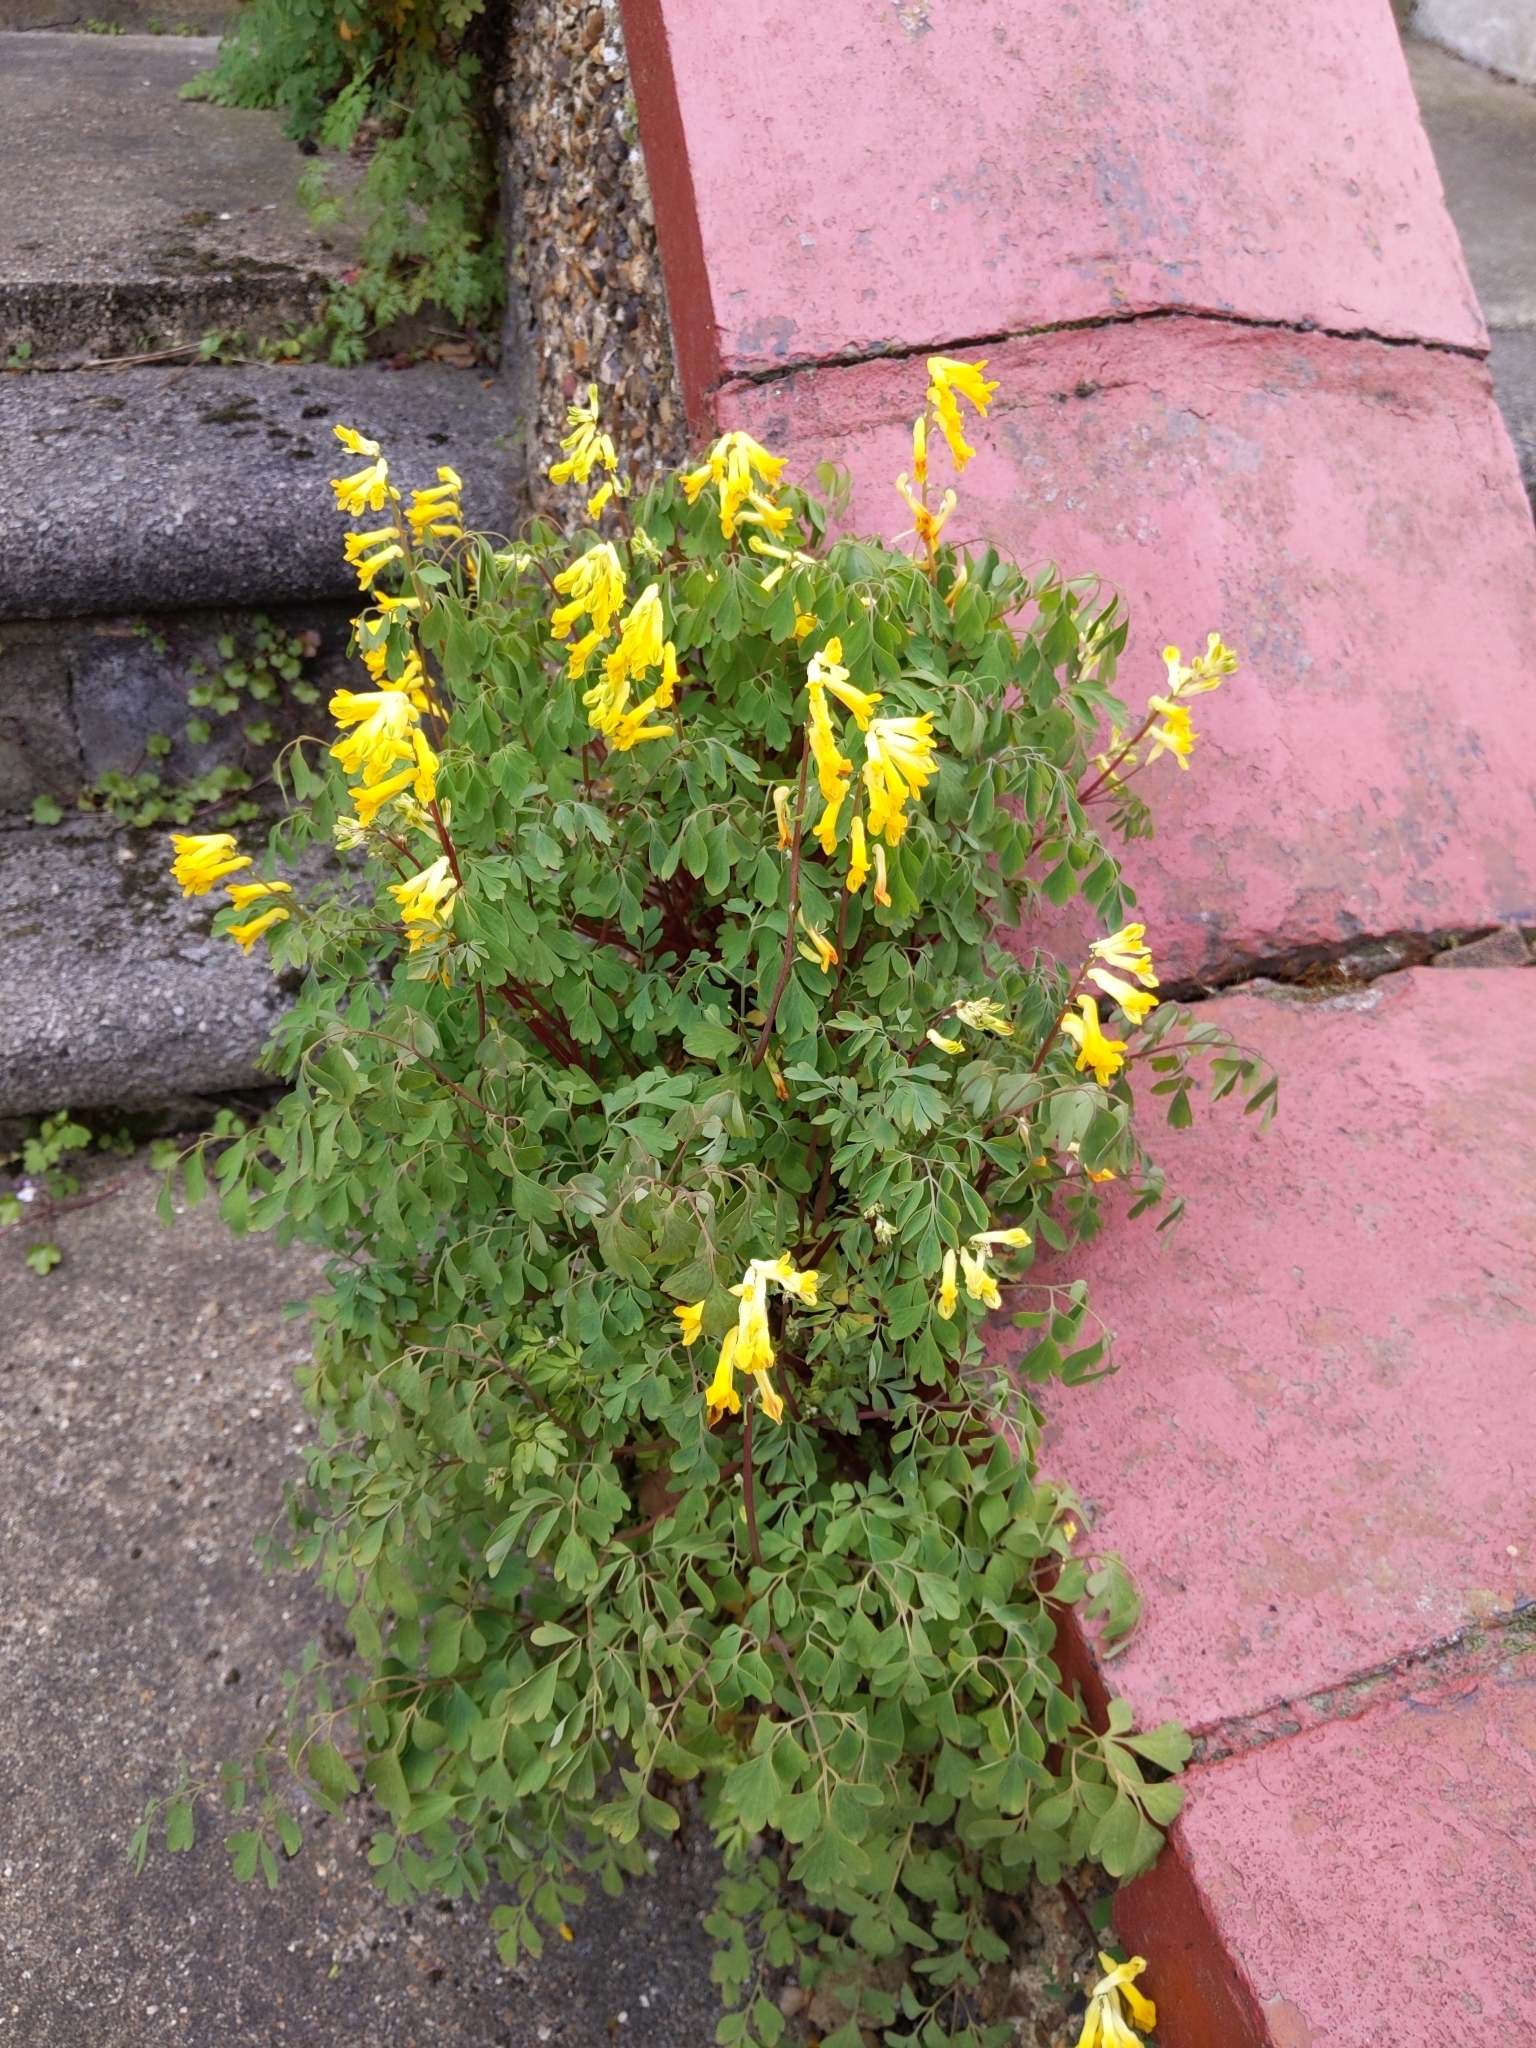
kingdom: Plantae
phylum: Tracheophyta
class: Magnoliopsida
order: Ranunculales
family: Papaveraceae
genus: Pseudofumaria
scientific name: Pseudofumaria lutea
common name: Yellow corydalis
